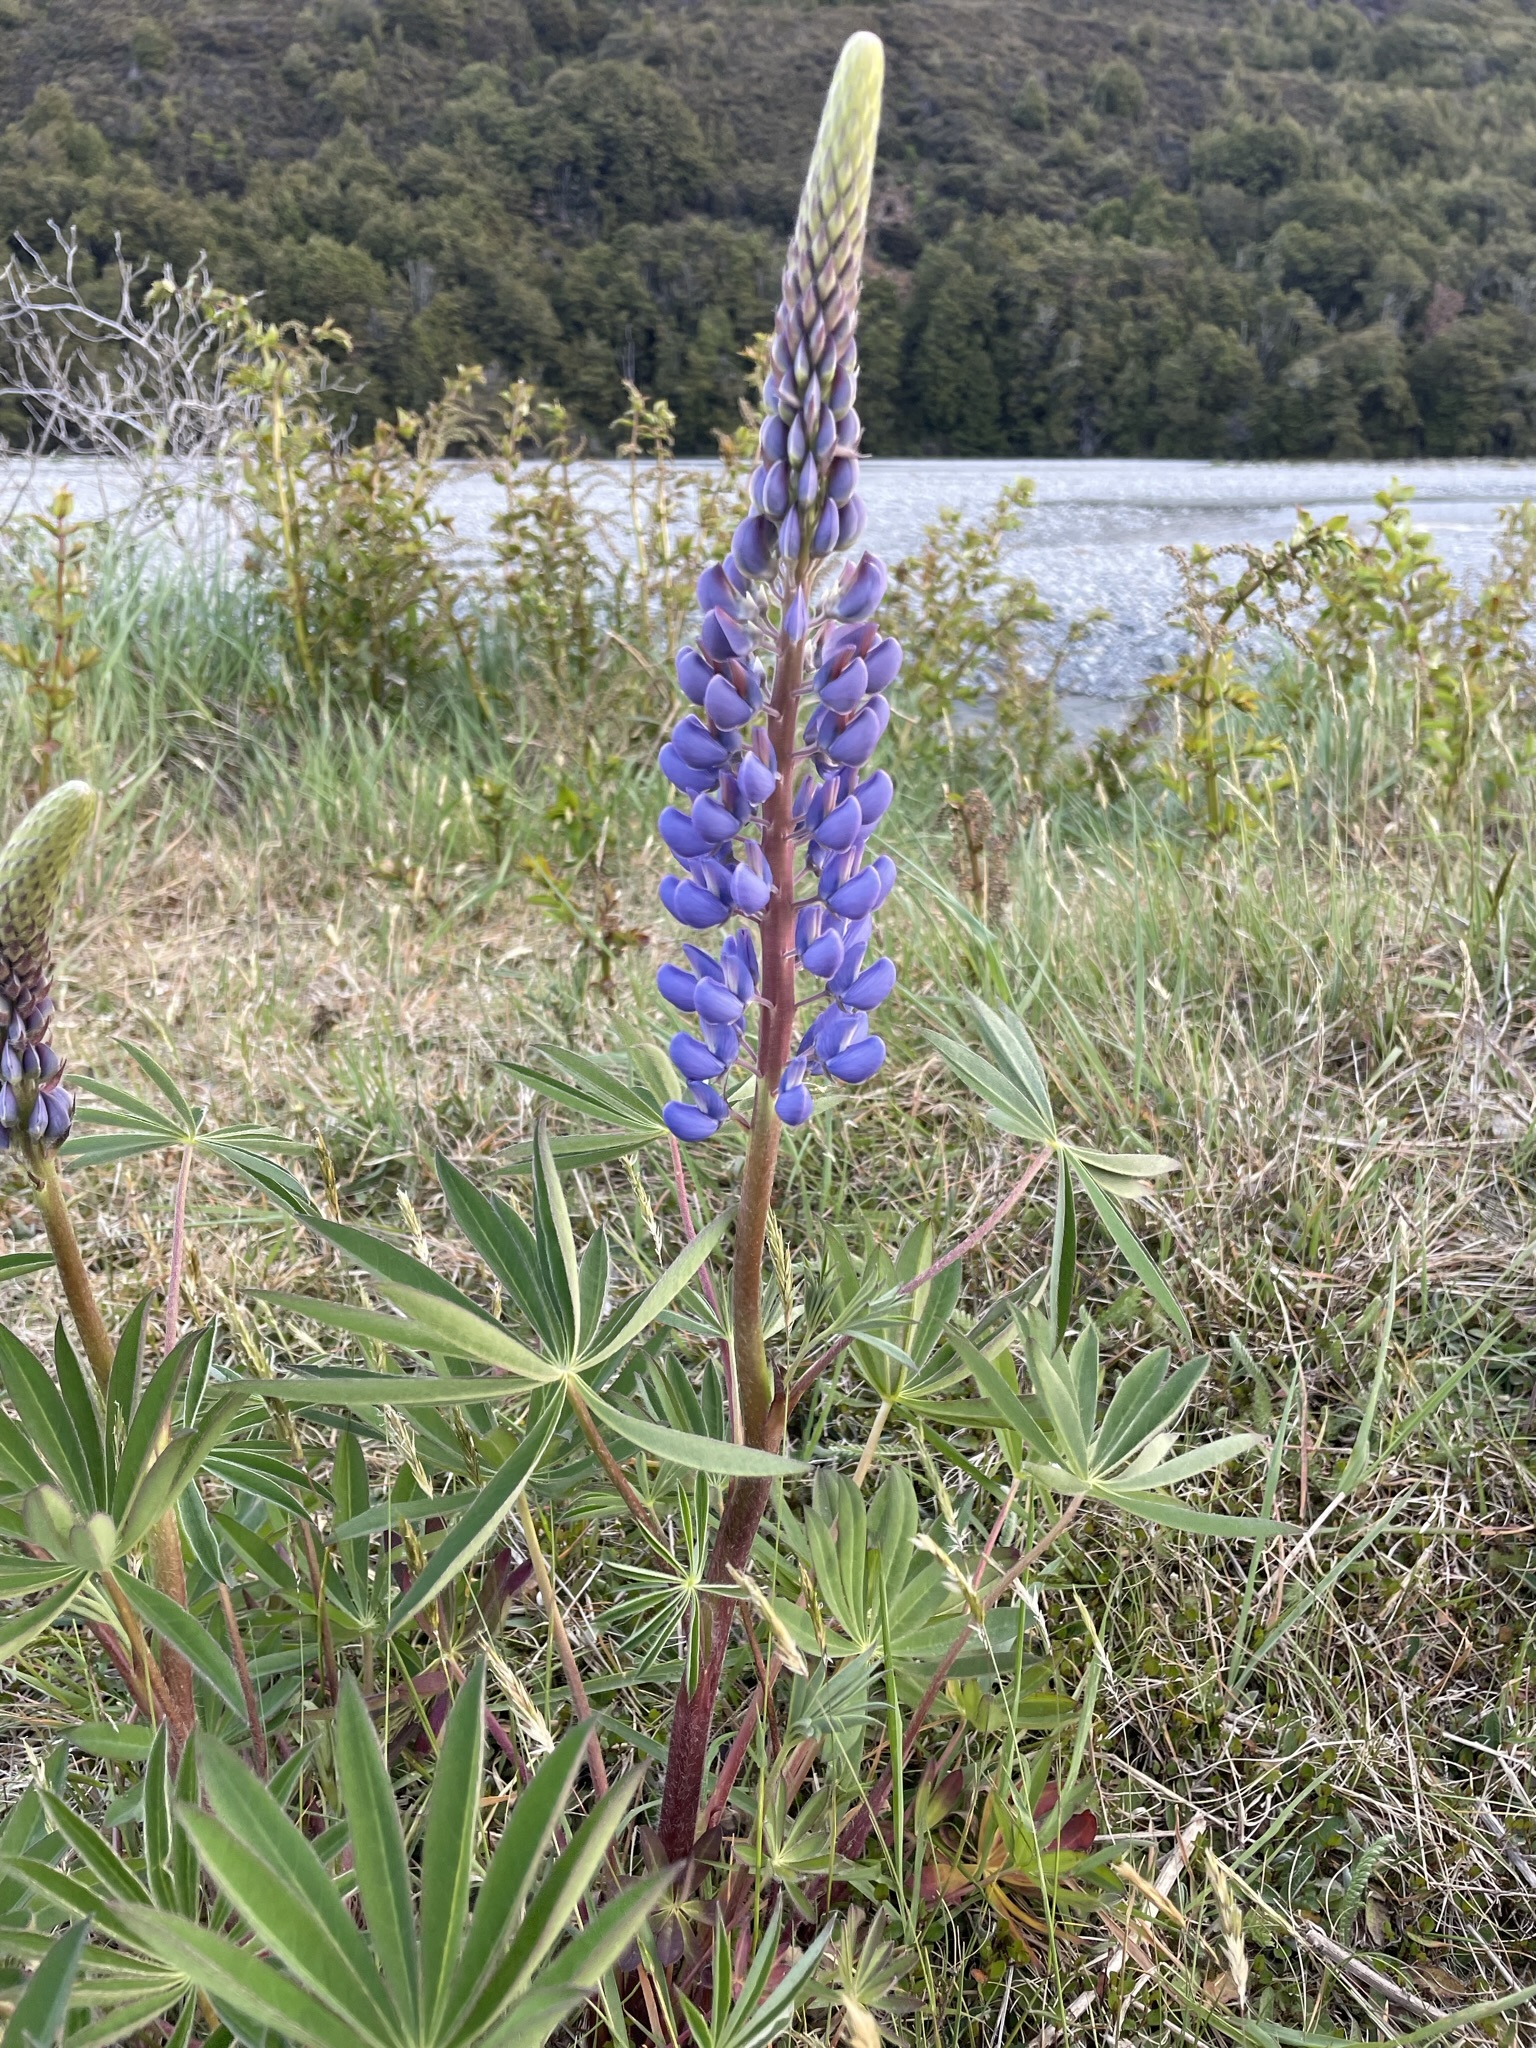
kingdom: Plantae
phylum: Tracheophyta
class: Magnoliopsida
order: Fabales
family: Fabaceae
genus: Lupinus
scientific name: Lupinus polyphyllus
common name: Garden lupin
